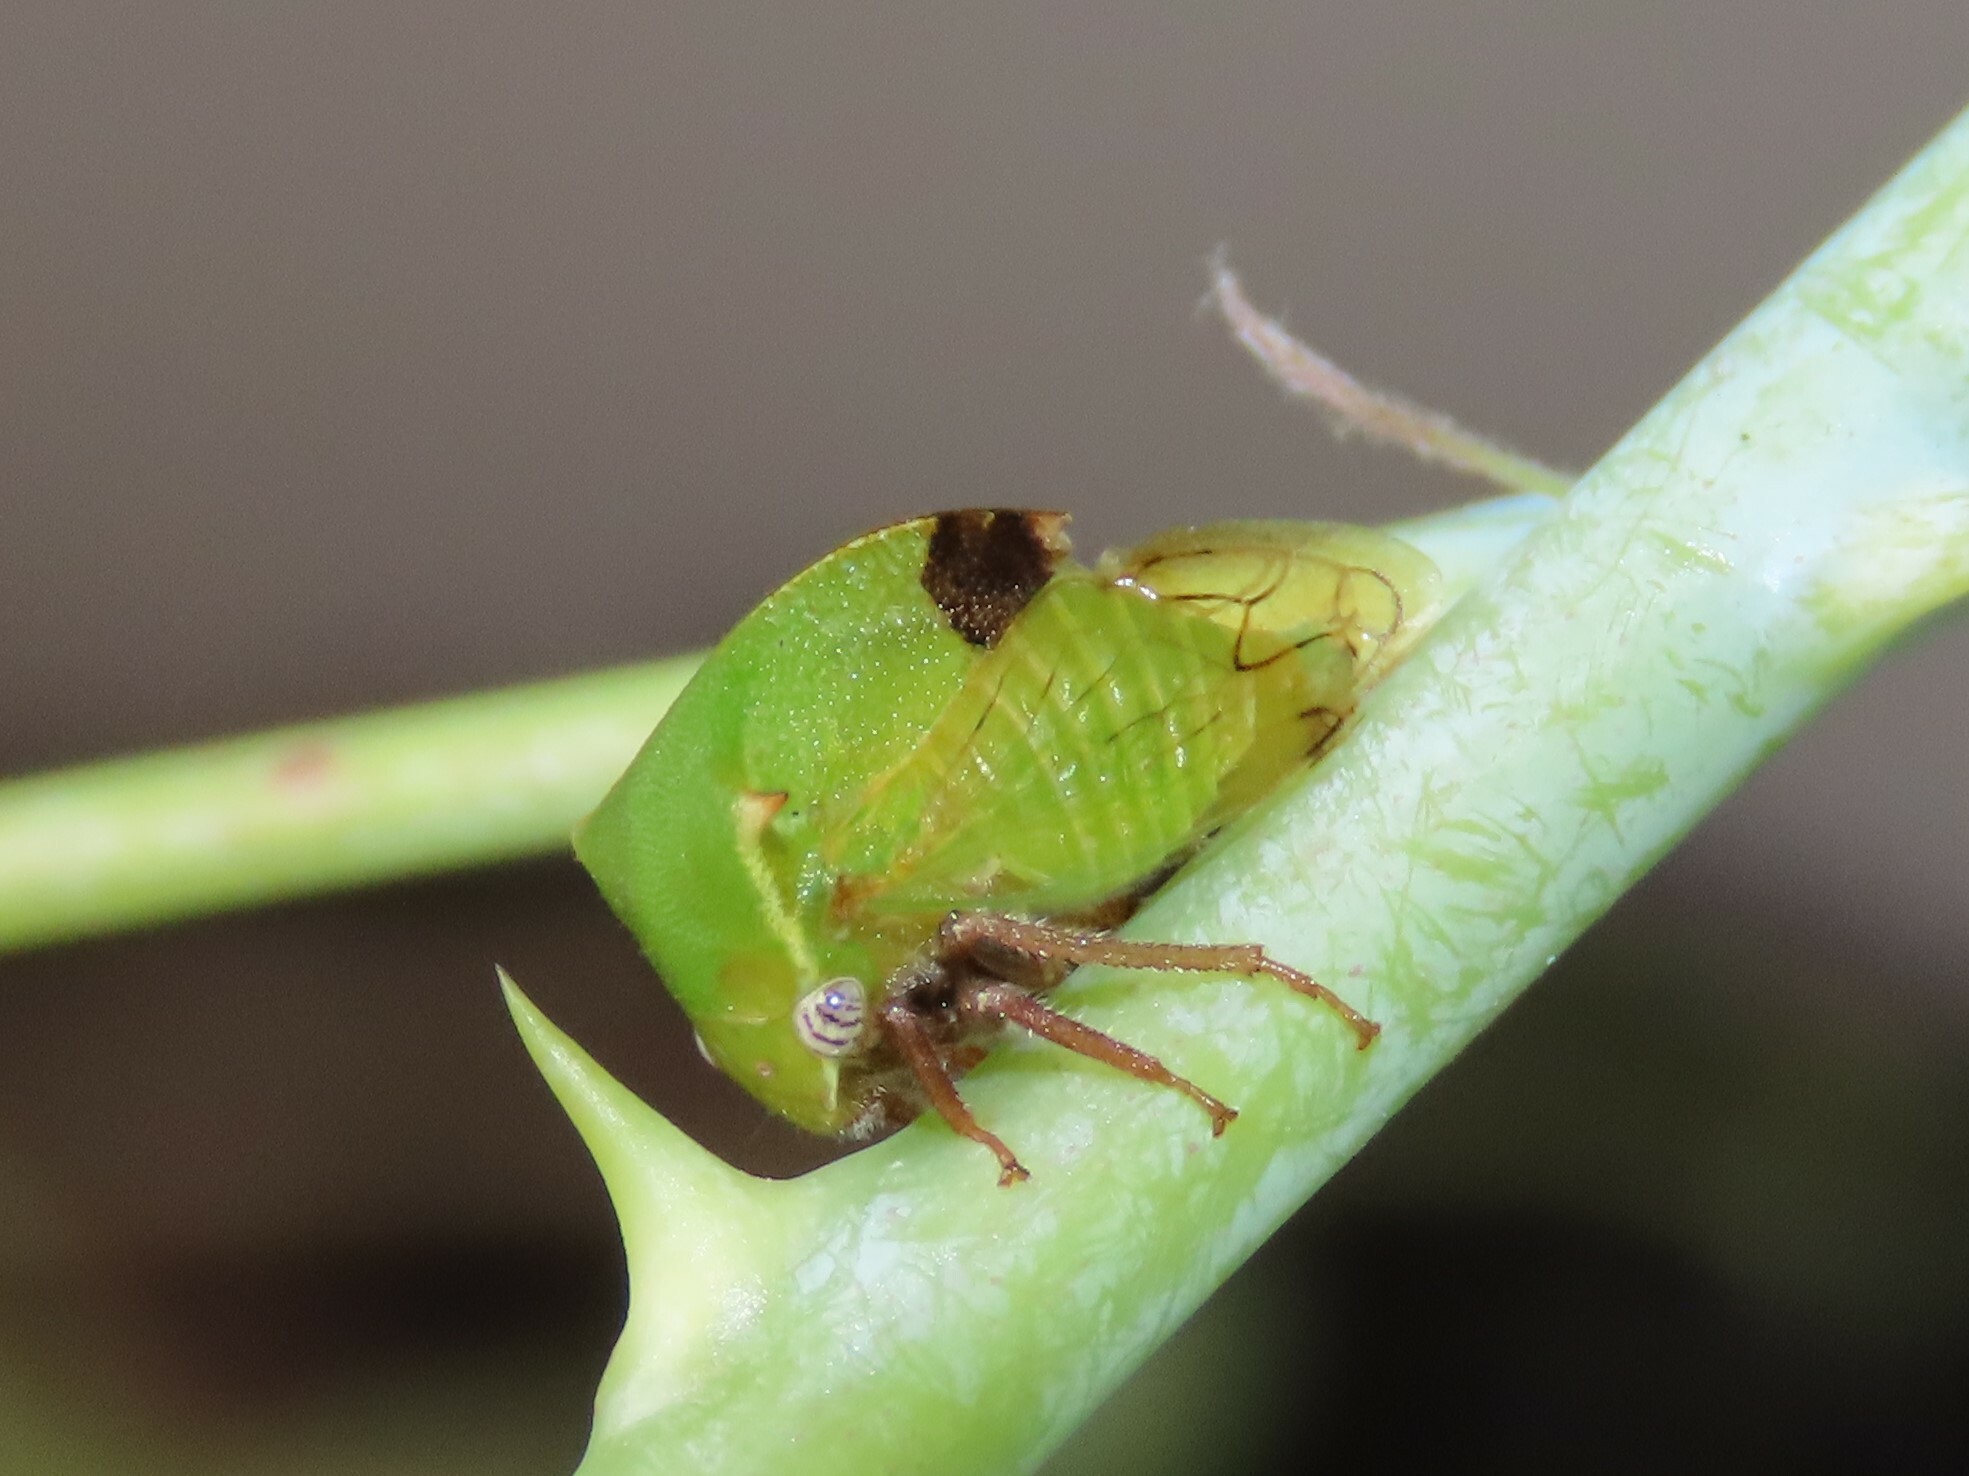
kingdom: Animalia
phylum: Arthropoda
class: Insecta
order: Hemiptera
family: Membracidae
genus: Stictocephala
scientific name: Stictocephala brevitylus
